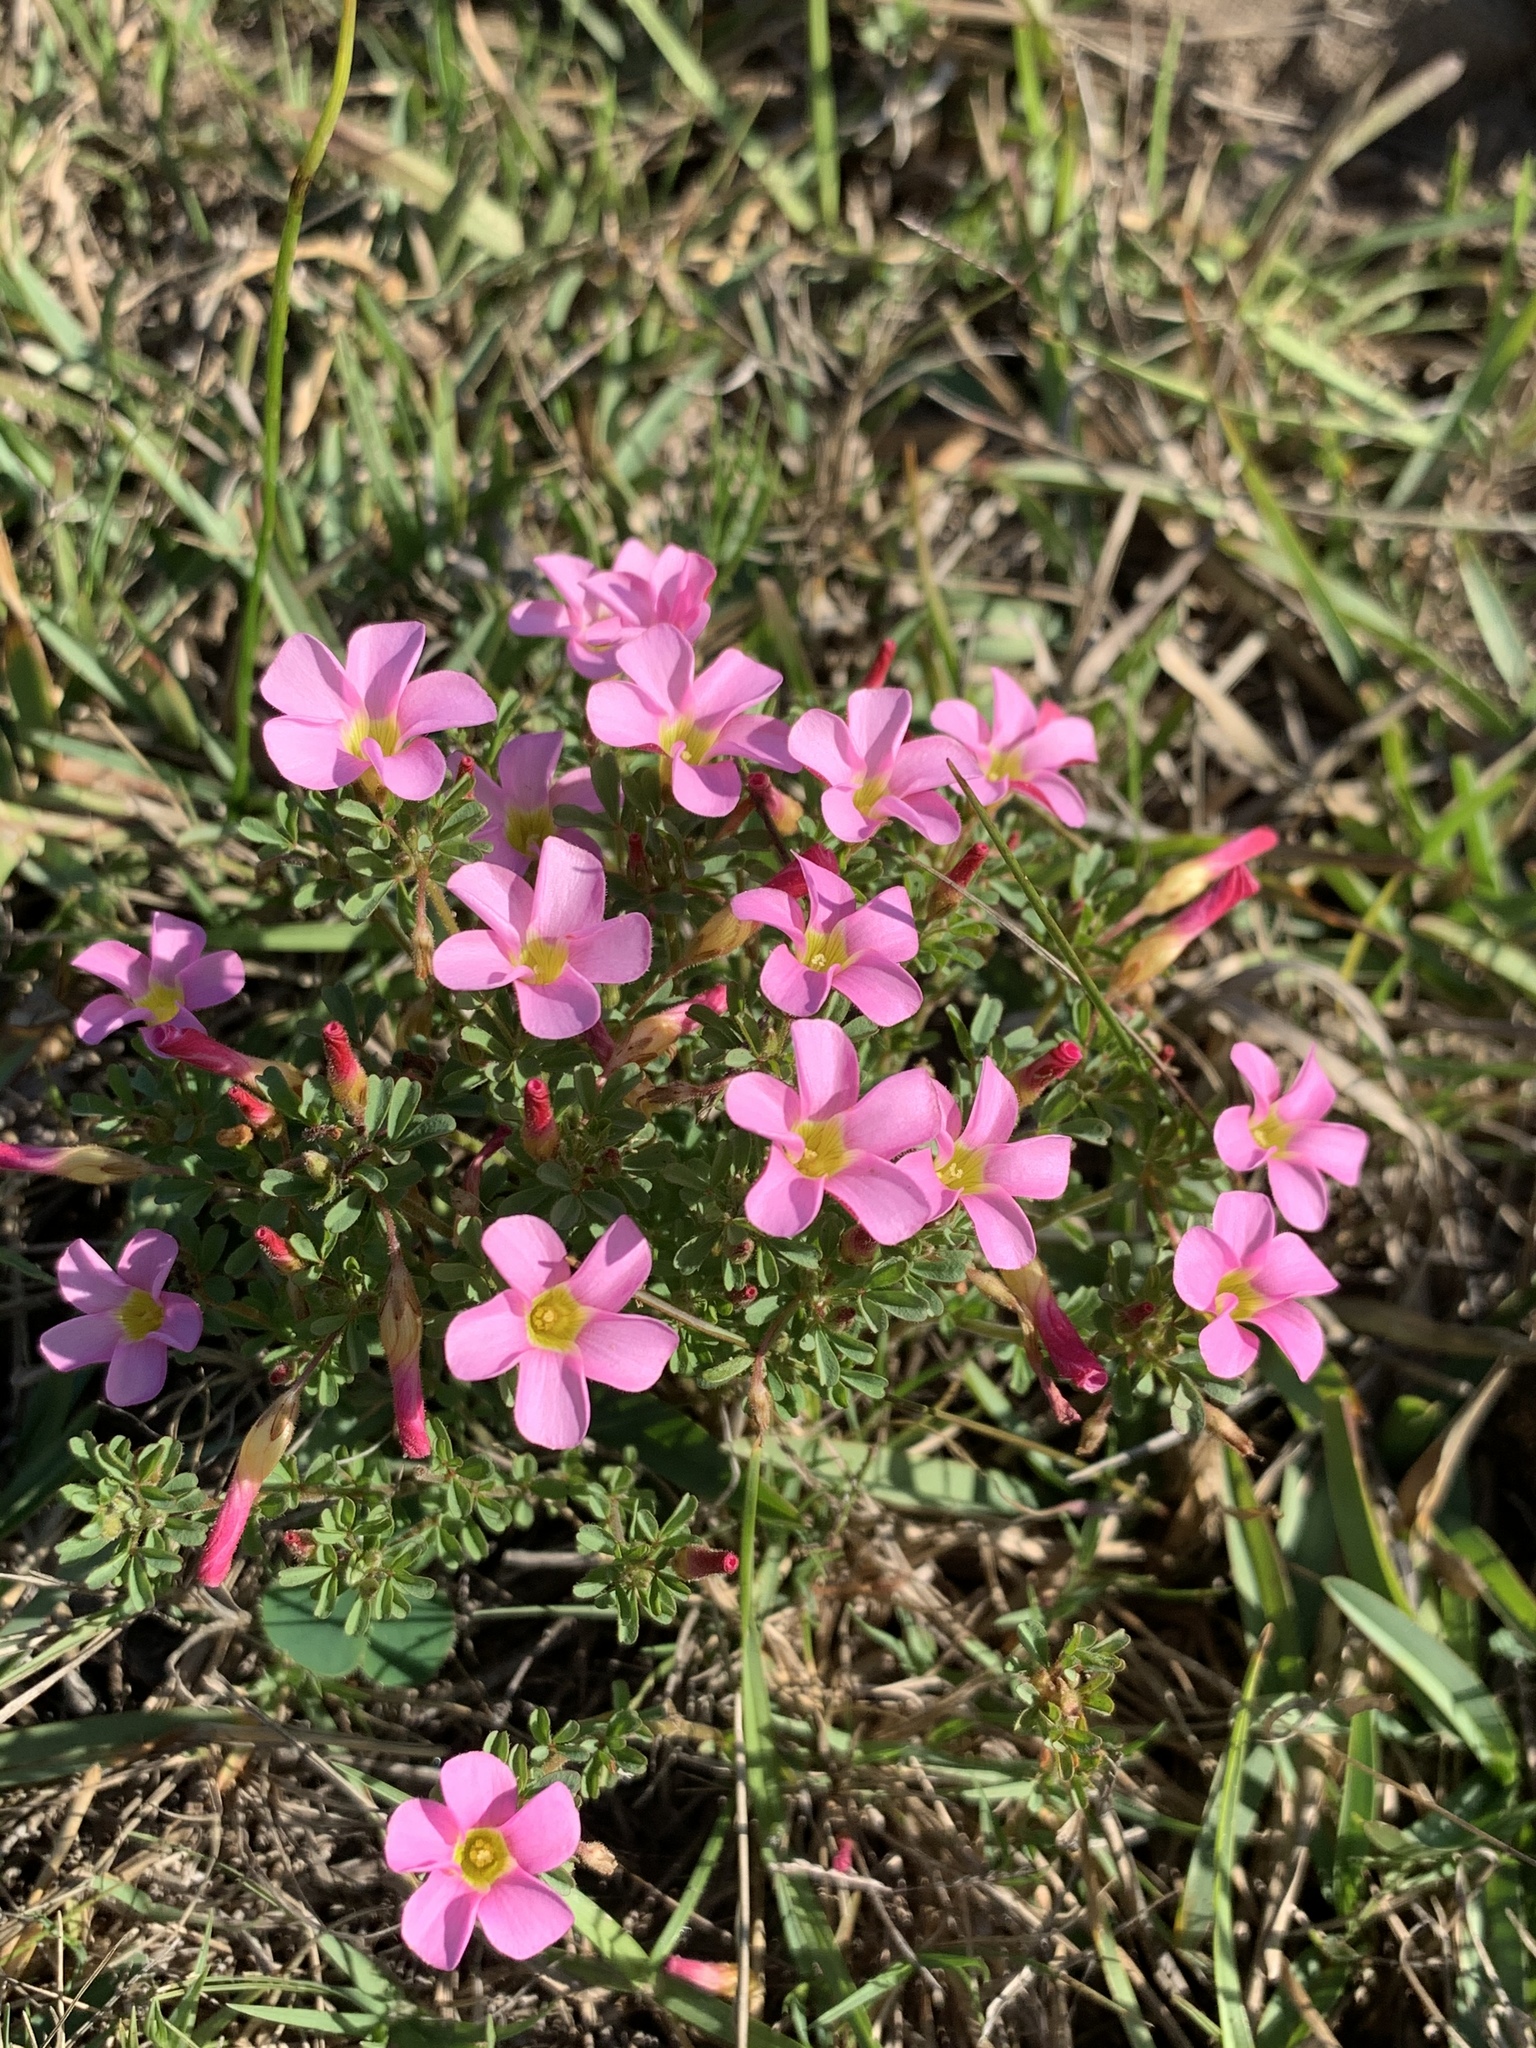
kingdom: Plantae
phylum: Tracheophyta
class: Magnoliopsida
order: Oxalidales
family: Oxalidaceae
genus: Oxalis
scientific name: Oxalis multicaulis
